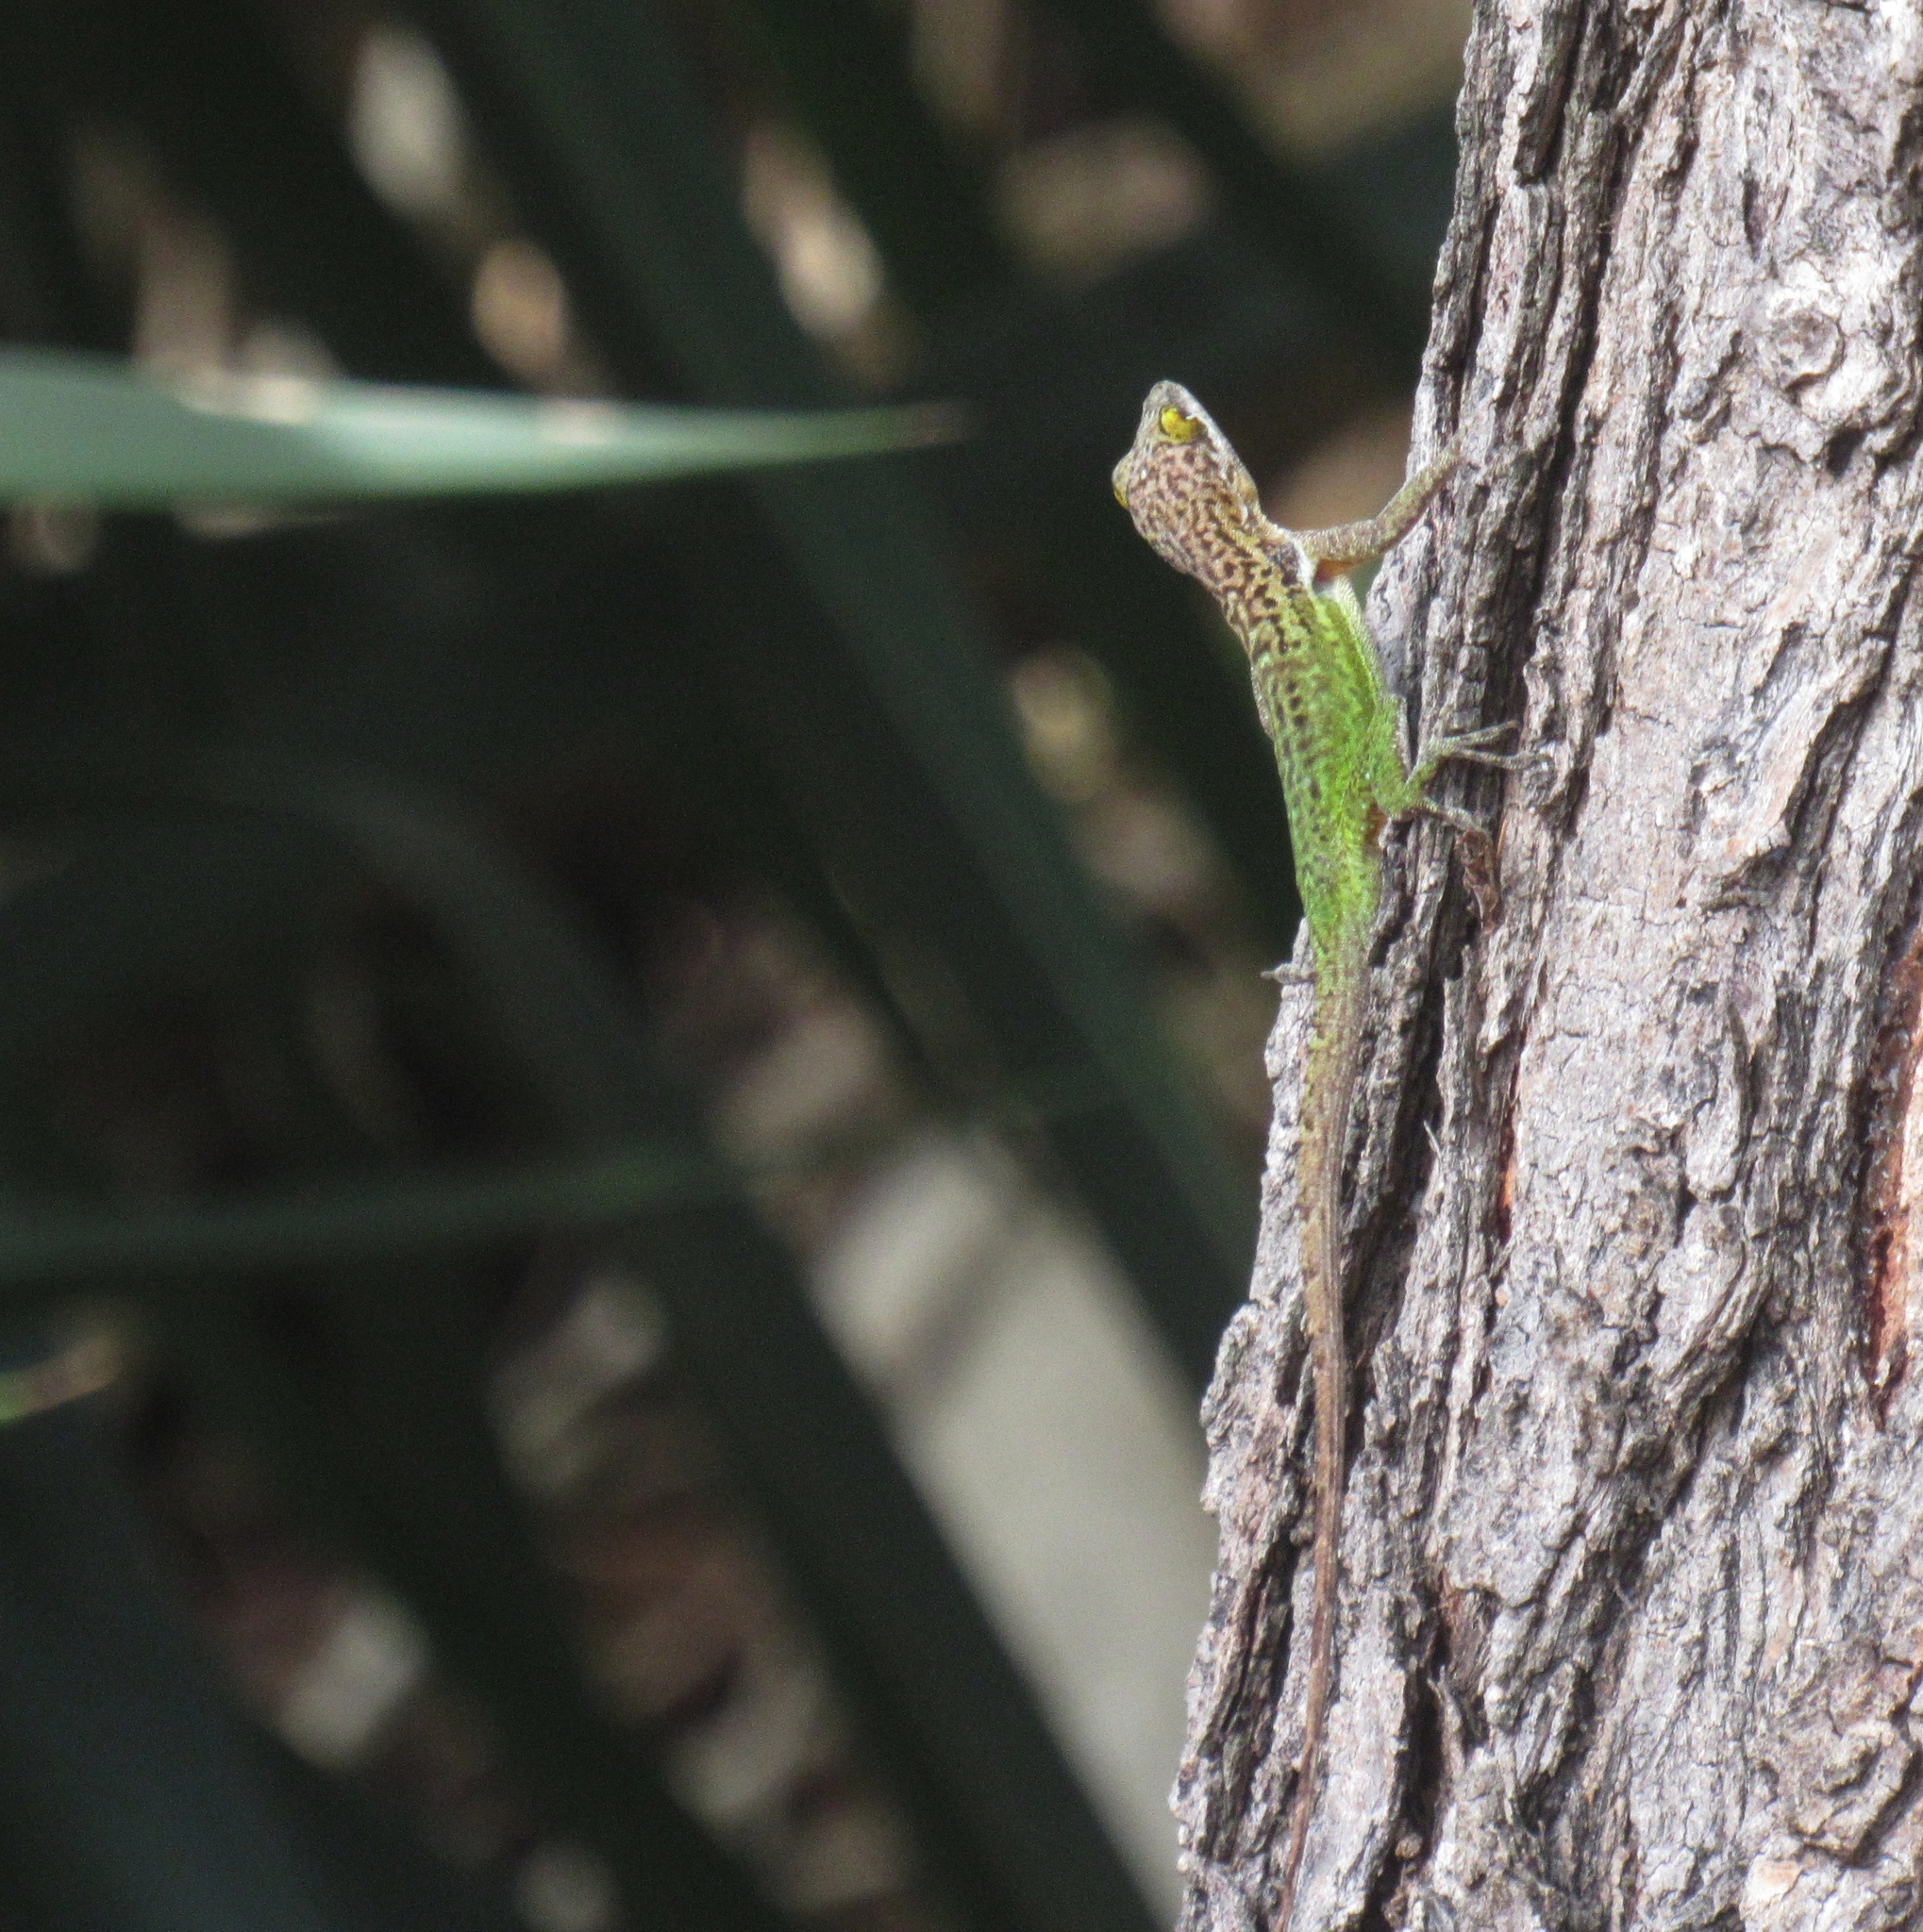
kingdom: Animalia
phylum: Chordata
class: Squamata
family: Dactyloidae
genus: Anolis
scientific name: Anolis leachii
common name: Barbuda bank tree anole
